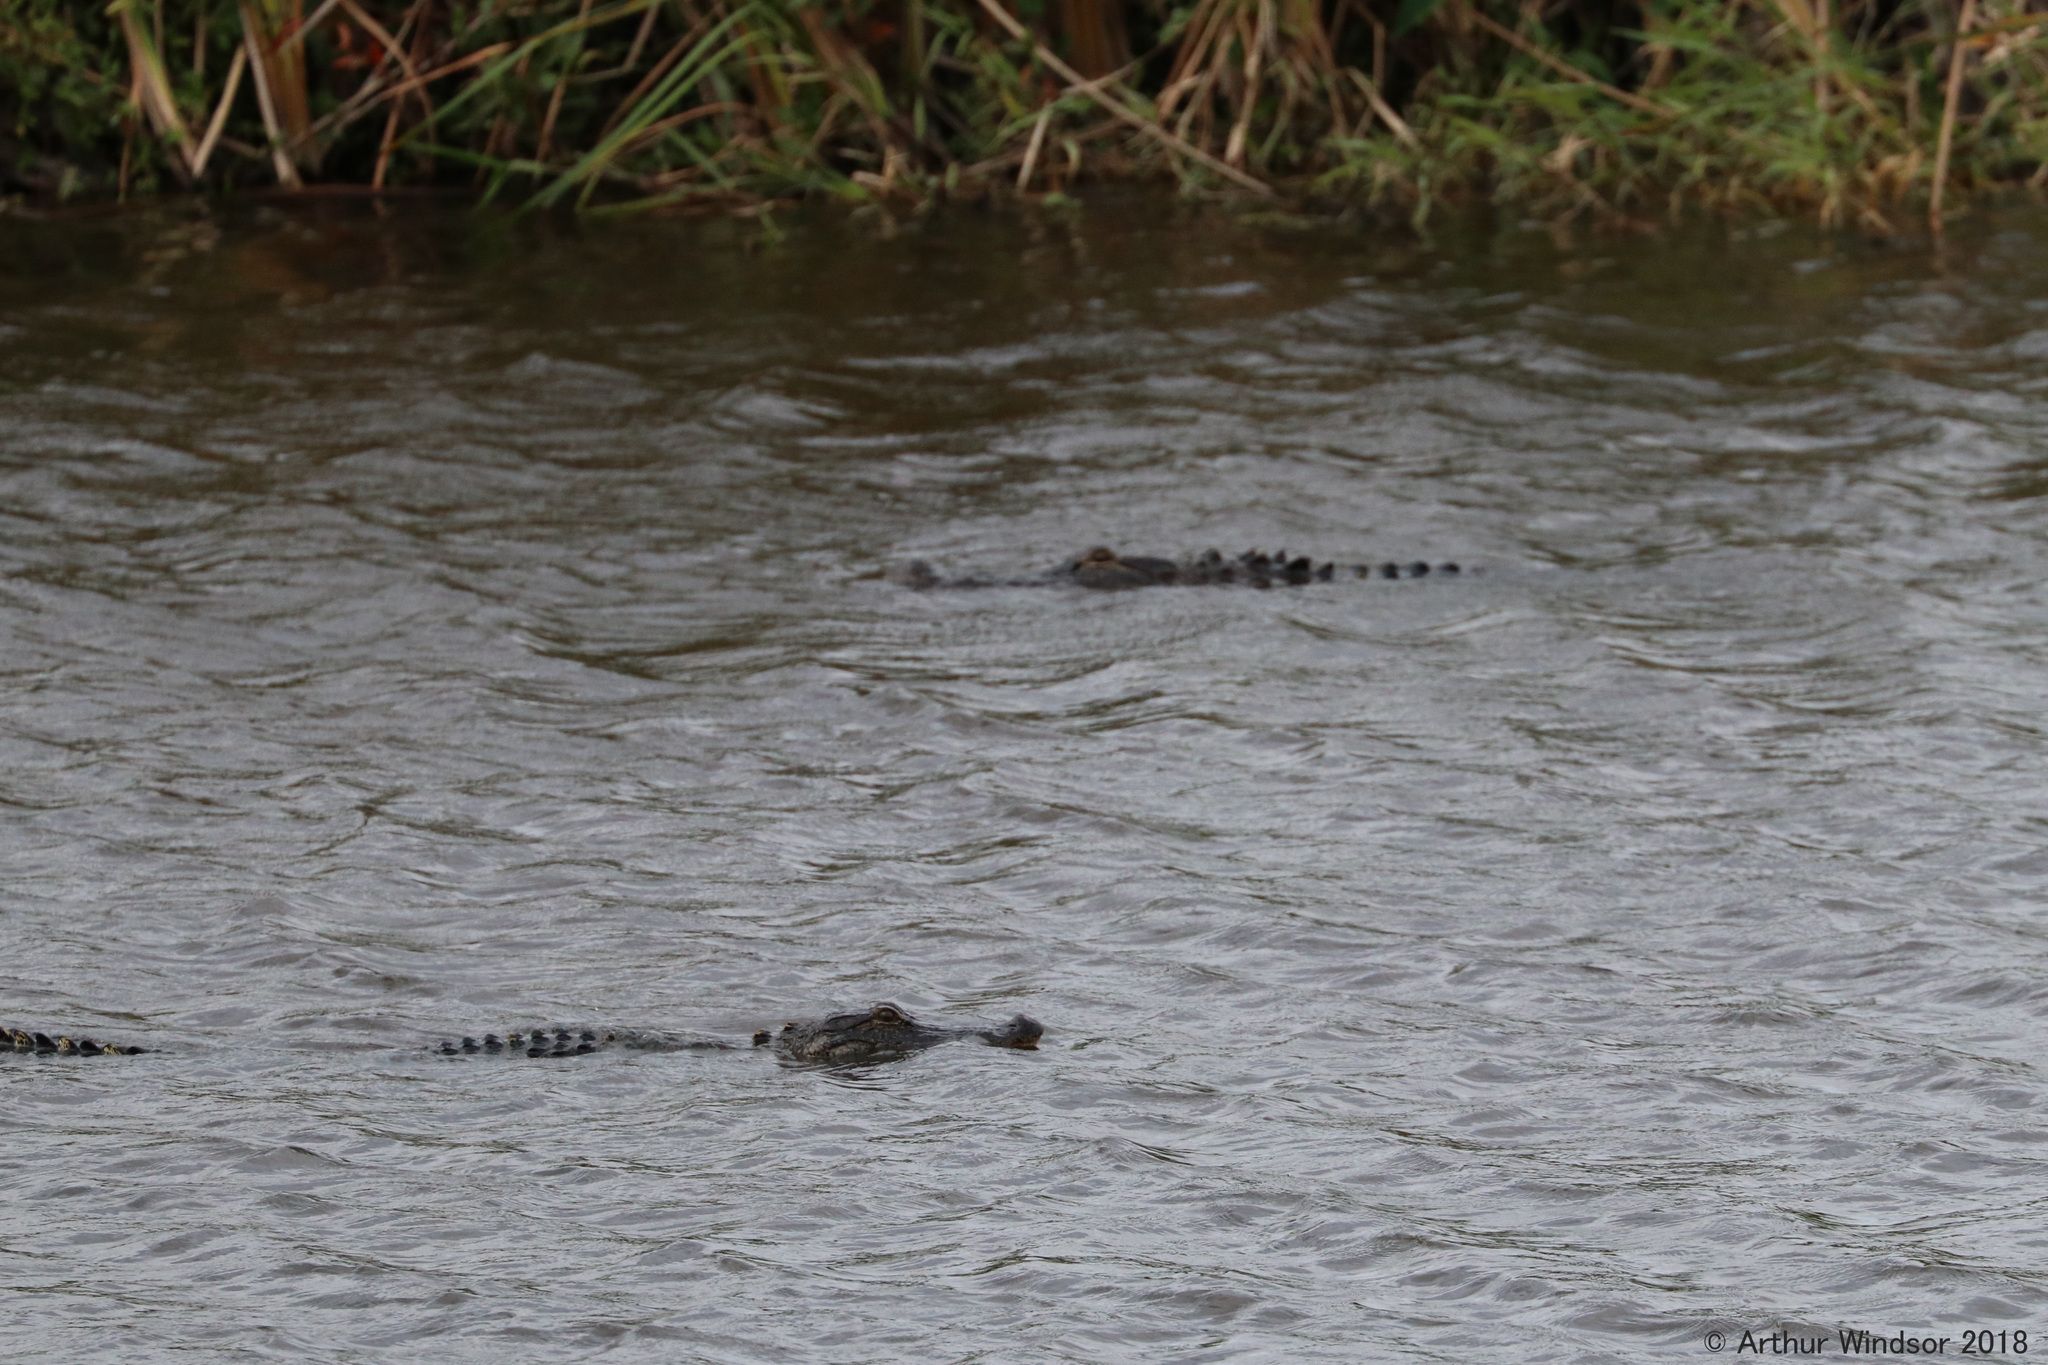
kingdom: Animalia
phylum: Chordata
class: Crocodylia
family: Alligatoridae
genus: Alligator
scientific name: Alligator mississippiensis
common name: American alligator
